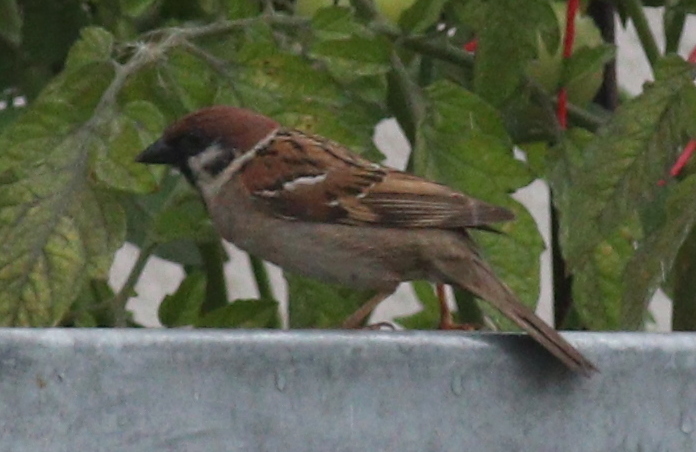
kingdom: Animalia
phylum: Chordata
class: Aves
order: Passeriformes
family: Passeridae
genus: Passer
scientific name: Passer montanus
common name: Eurasian tree sparrow
